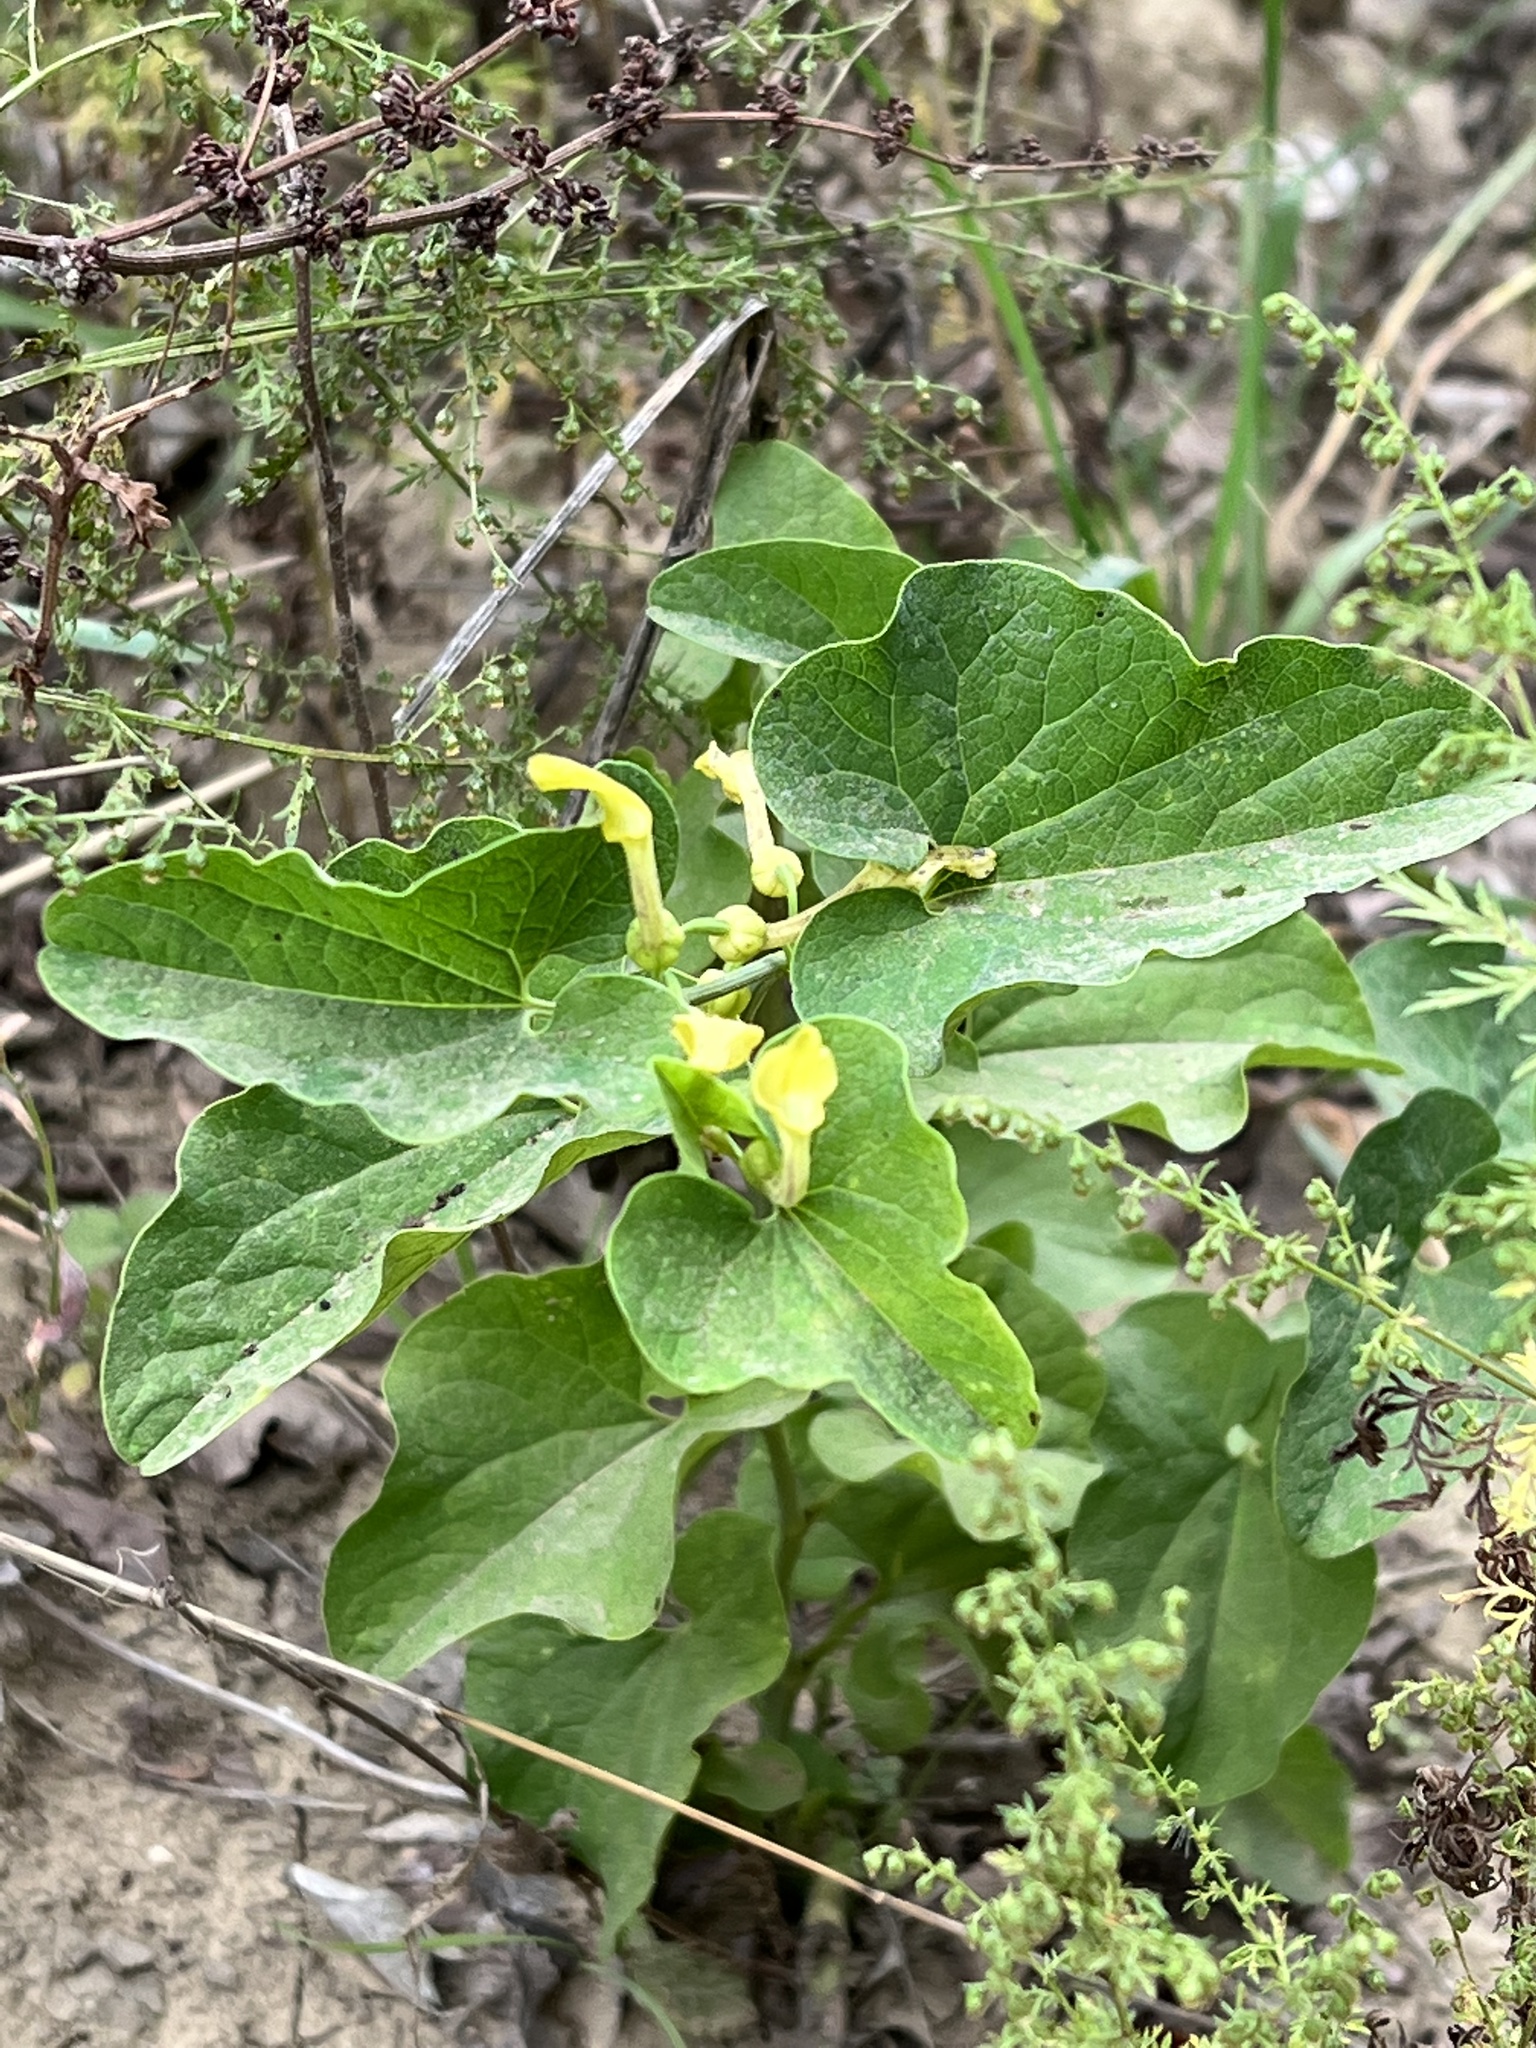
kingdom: Plantae
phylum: Tracheophyta
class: Magnoliopsida
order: Piperales
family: Aristolochiaceae
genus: Aristolochia
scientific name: Aristolochia clematitis
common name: Birthwort
